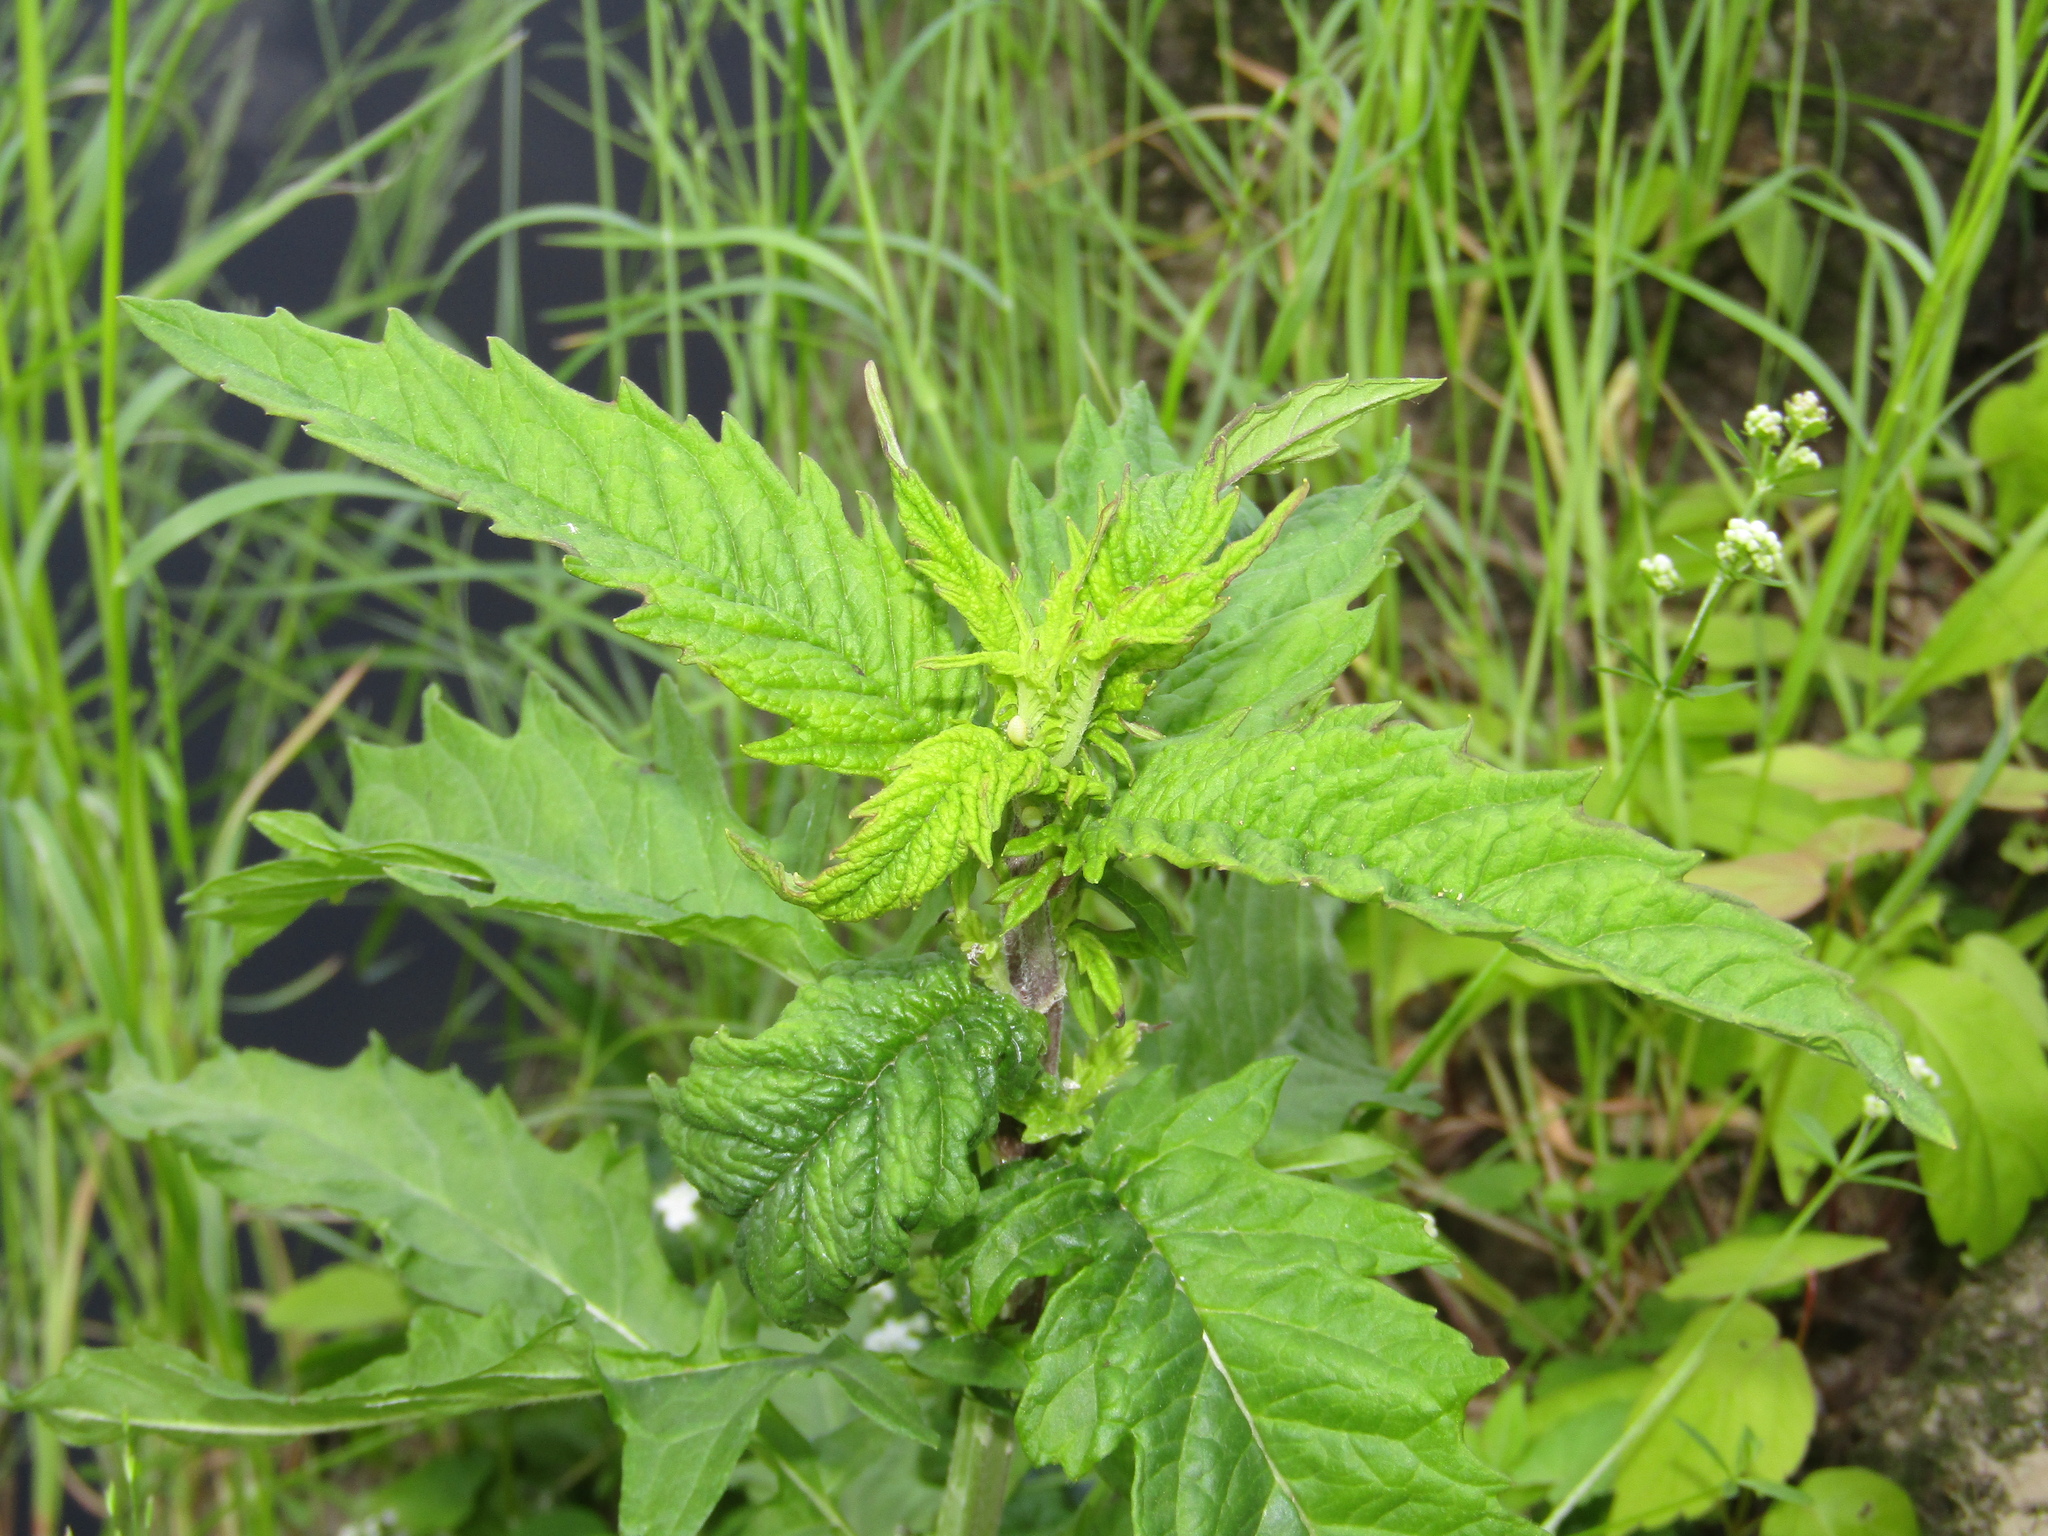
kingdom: Plantae
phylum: Tracheophyta
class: Magnoliopsida
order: Lamiales
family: Lamiaceae
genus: Lycopus
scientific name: Lycopus europaeus
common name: European bugleweed
